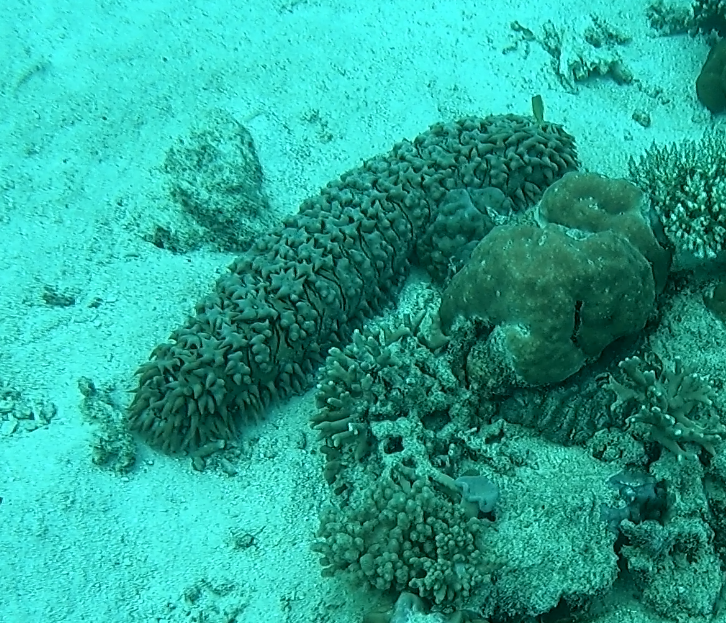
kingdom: Animalia
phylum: Echinodermata
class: Holothuroidea
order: Synallactida
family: Stichopodidae
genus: Thelenota
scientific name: Thelenota ananas
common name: Prickly redfish
